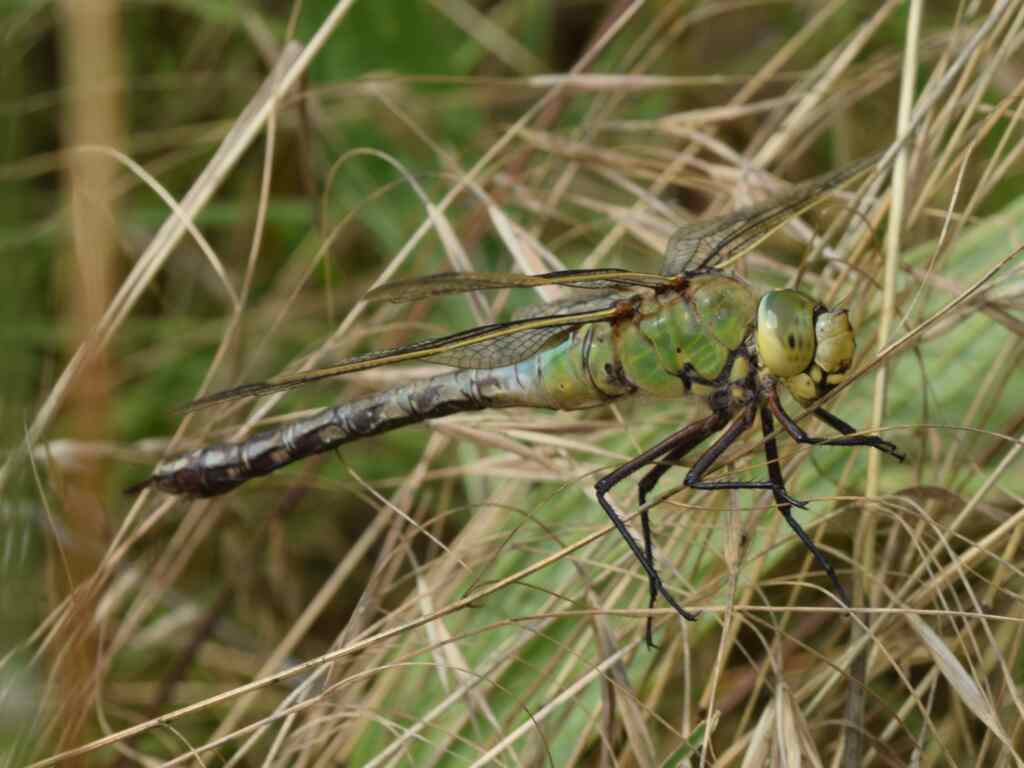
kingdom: Animalia
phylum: Arthropoda
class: Insecta
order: Odonata
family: Aeshnidae
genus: Anax
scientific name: Anax imperator
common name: Emperor dragonfly
